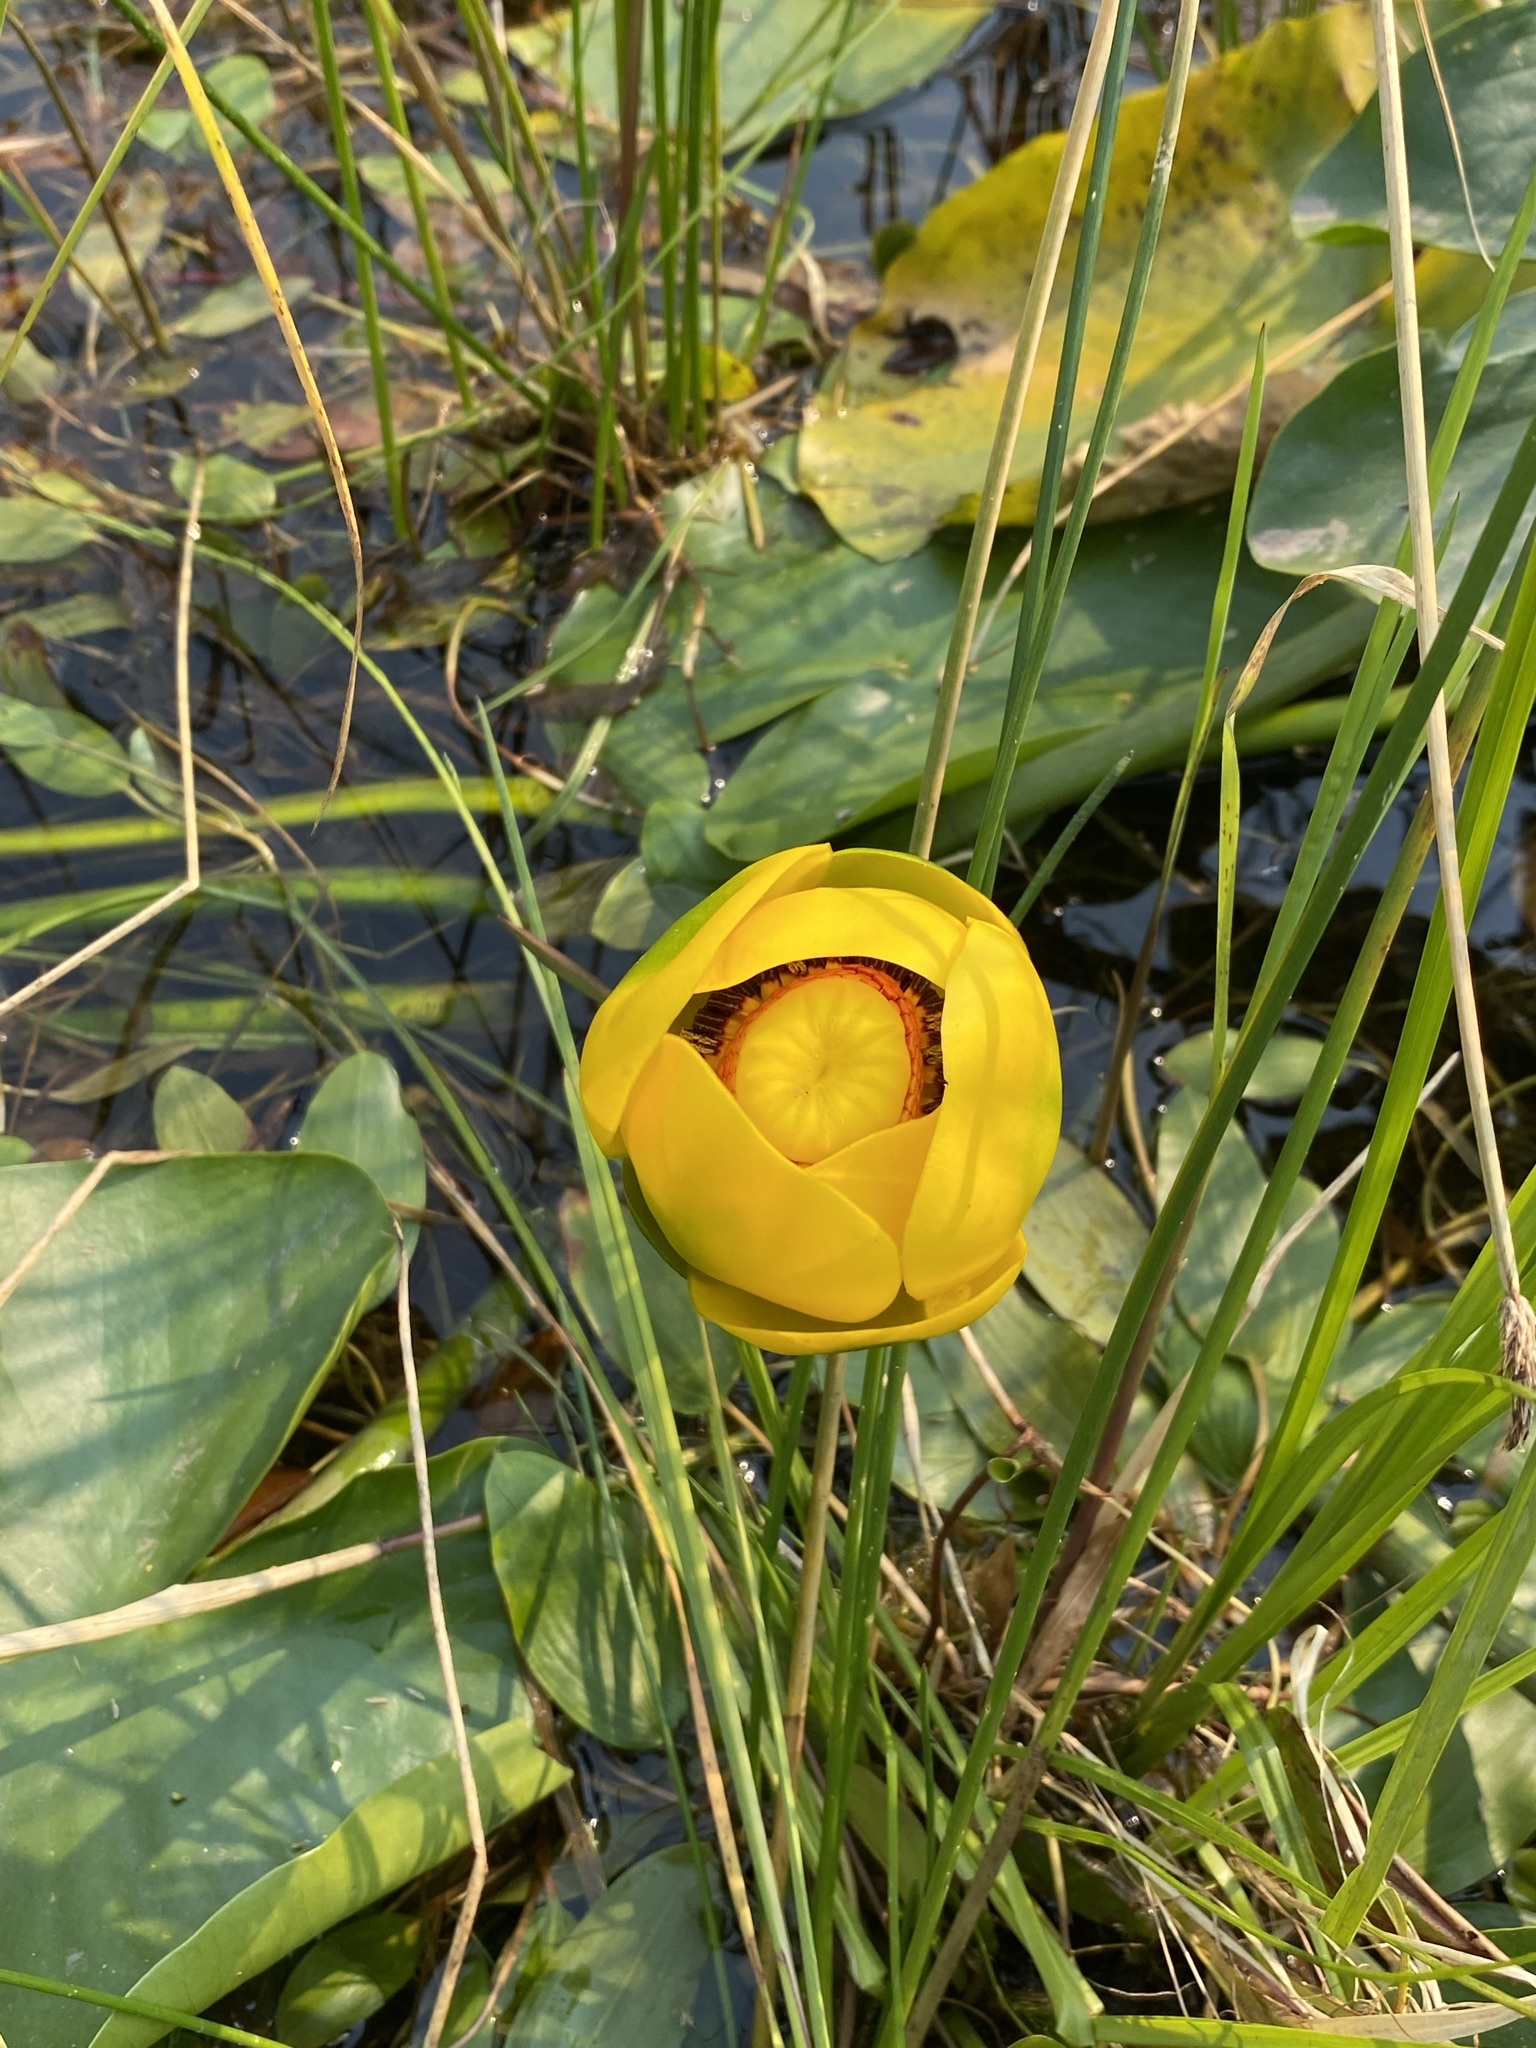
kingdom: Plantae
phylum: Tracheophyta
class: Magnoliopsida
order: Nymphaeales
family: Nymphaeaceae
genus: Nuphar
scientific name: Nuphar polysepala
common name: Rocky mountain cow-lily
